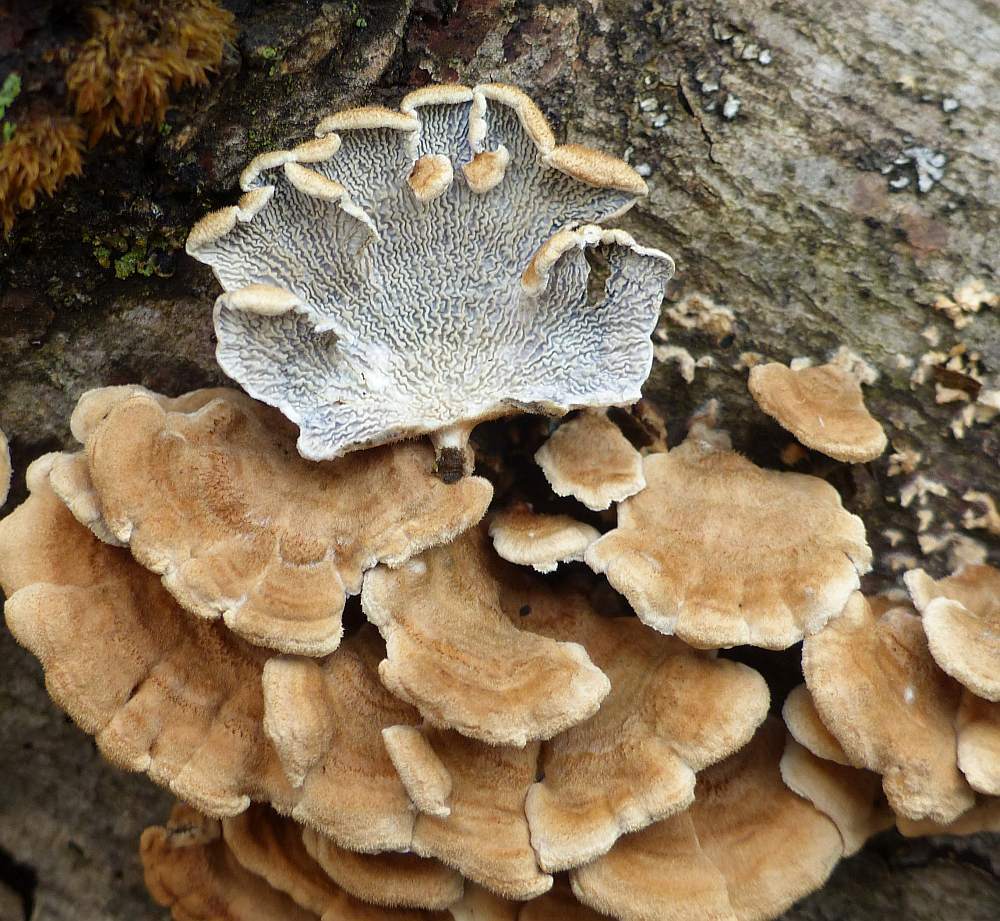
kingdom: Fungi
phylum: Basidiomycota
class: Agaricomycetes
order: Amylocorticiales
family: Amylocorticiaceae
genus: Plicaturopsis
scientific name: Plicaturopsis crispa
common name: Crimped gill
